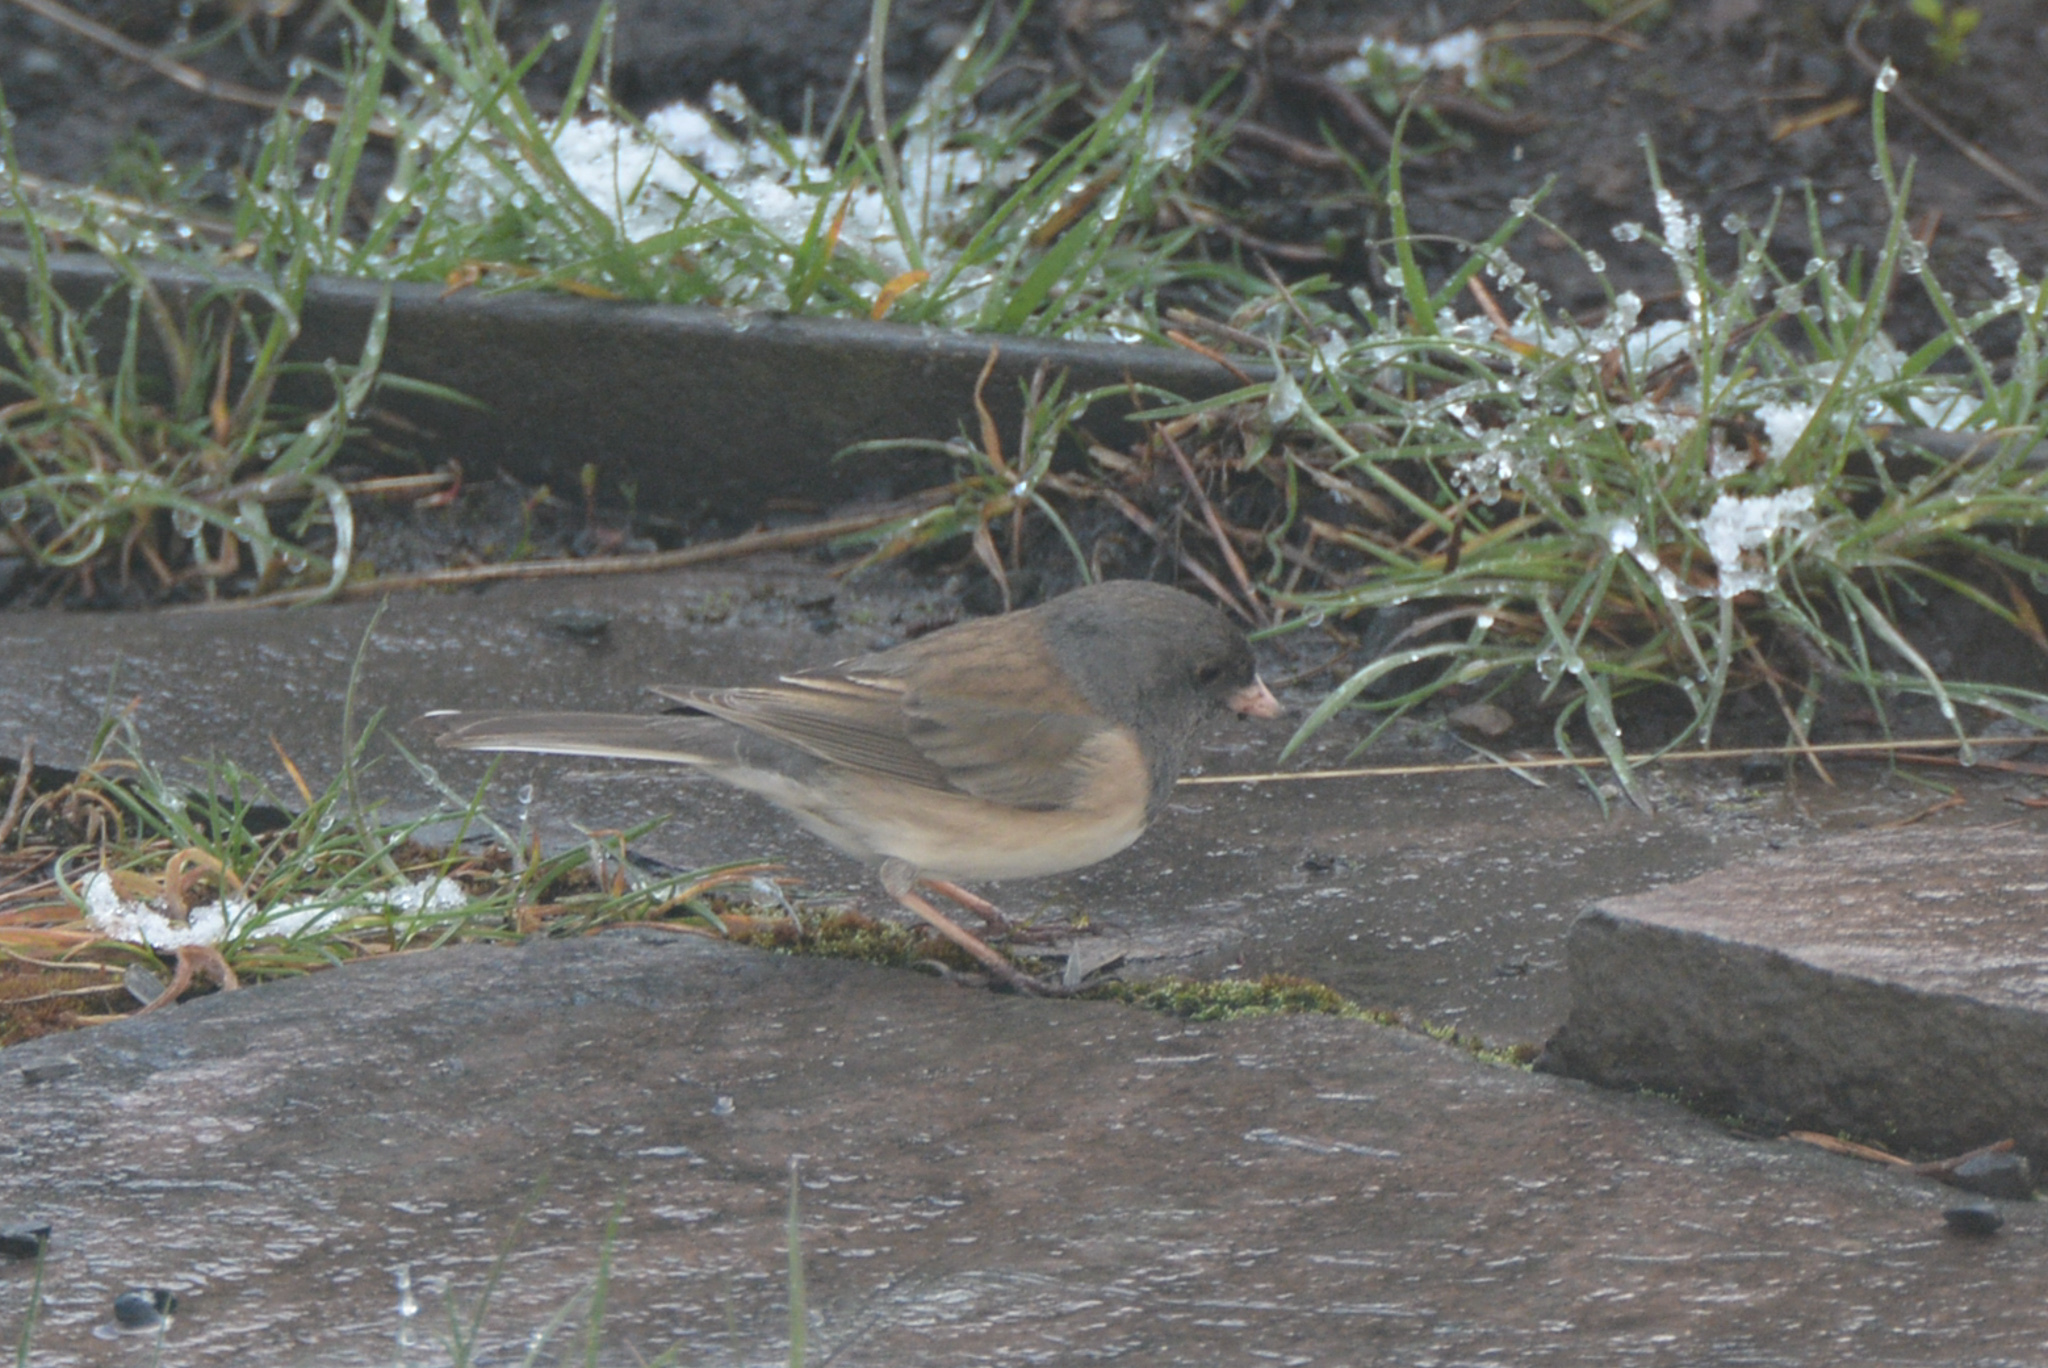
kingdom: Animalia
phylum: Chordata
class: Aves
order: Passeriformes
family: Passerellidae
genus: Junco
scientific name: Junco hyemalis
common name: Dark-eyed junco
